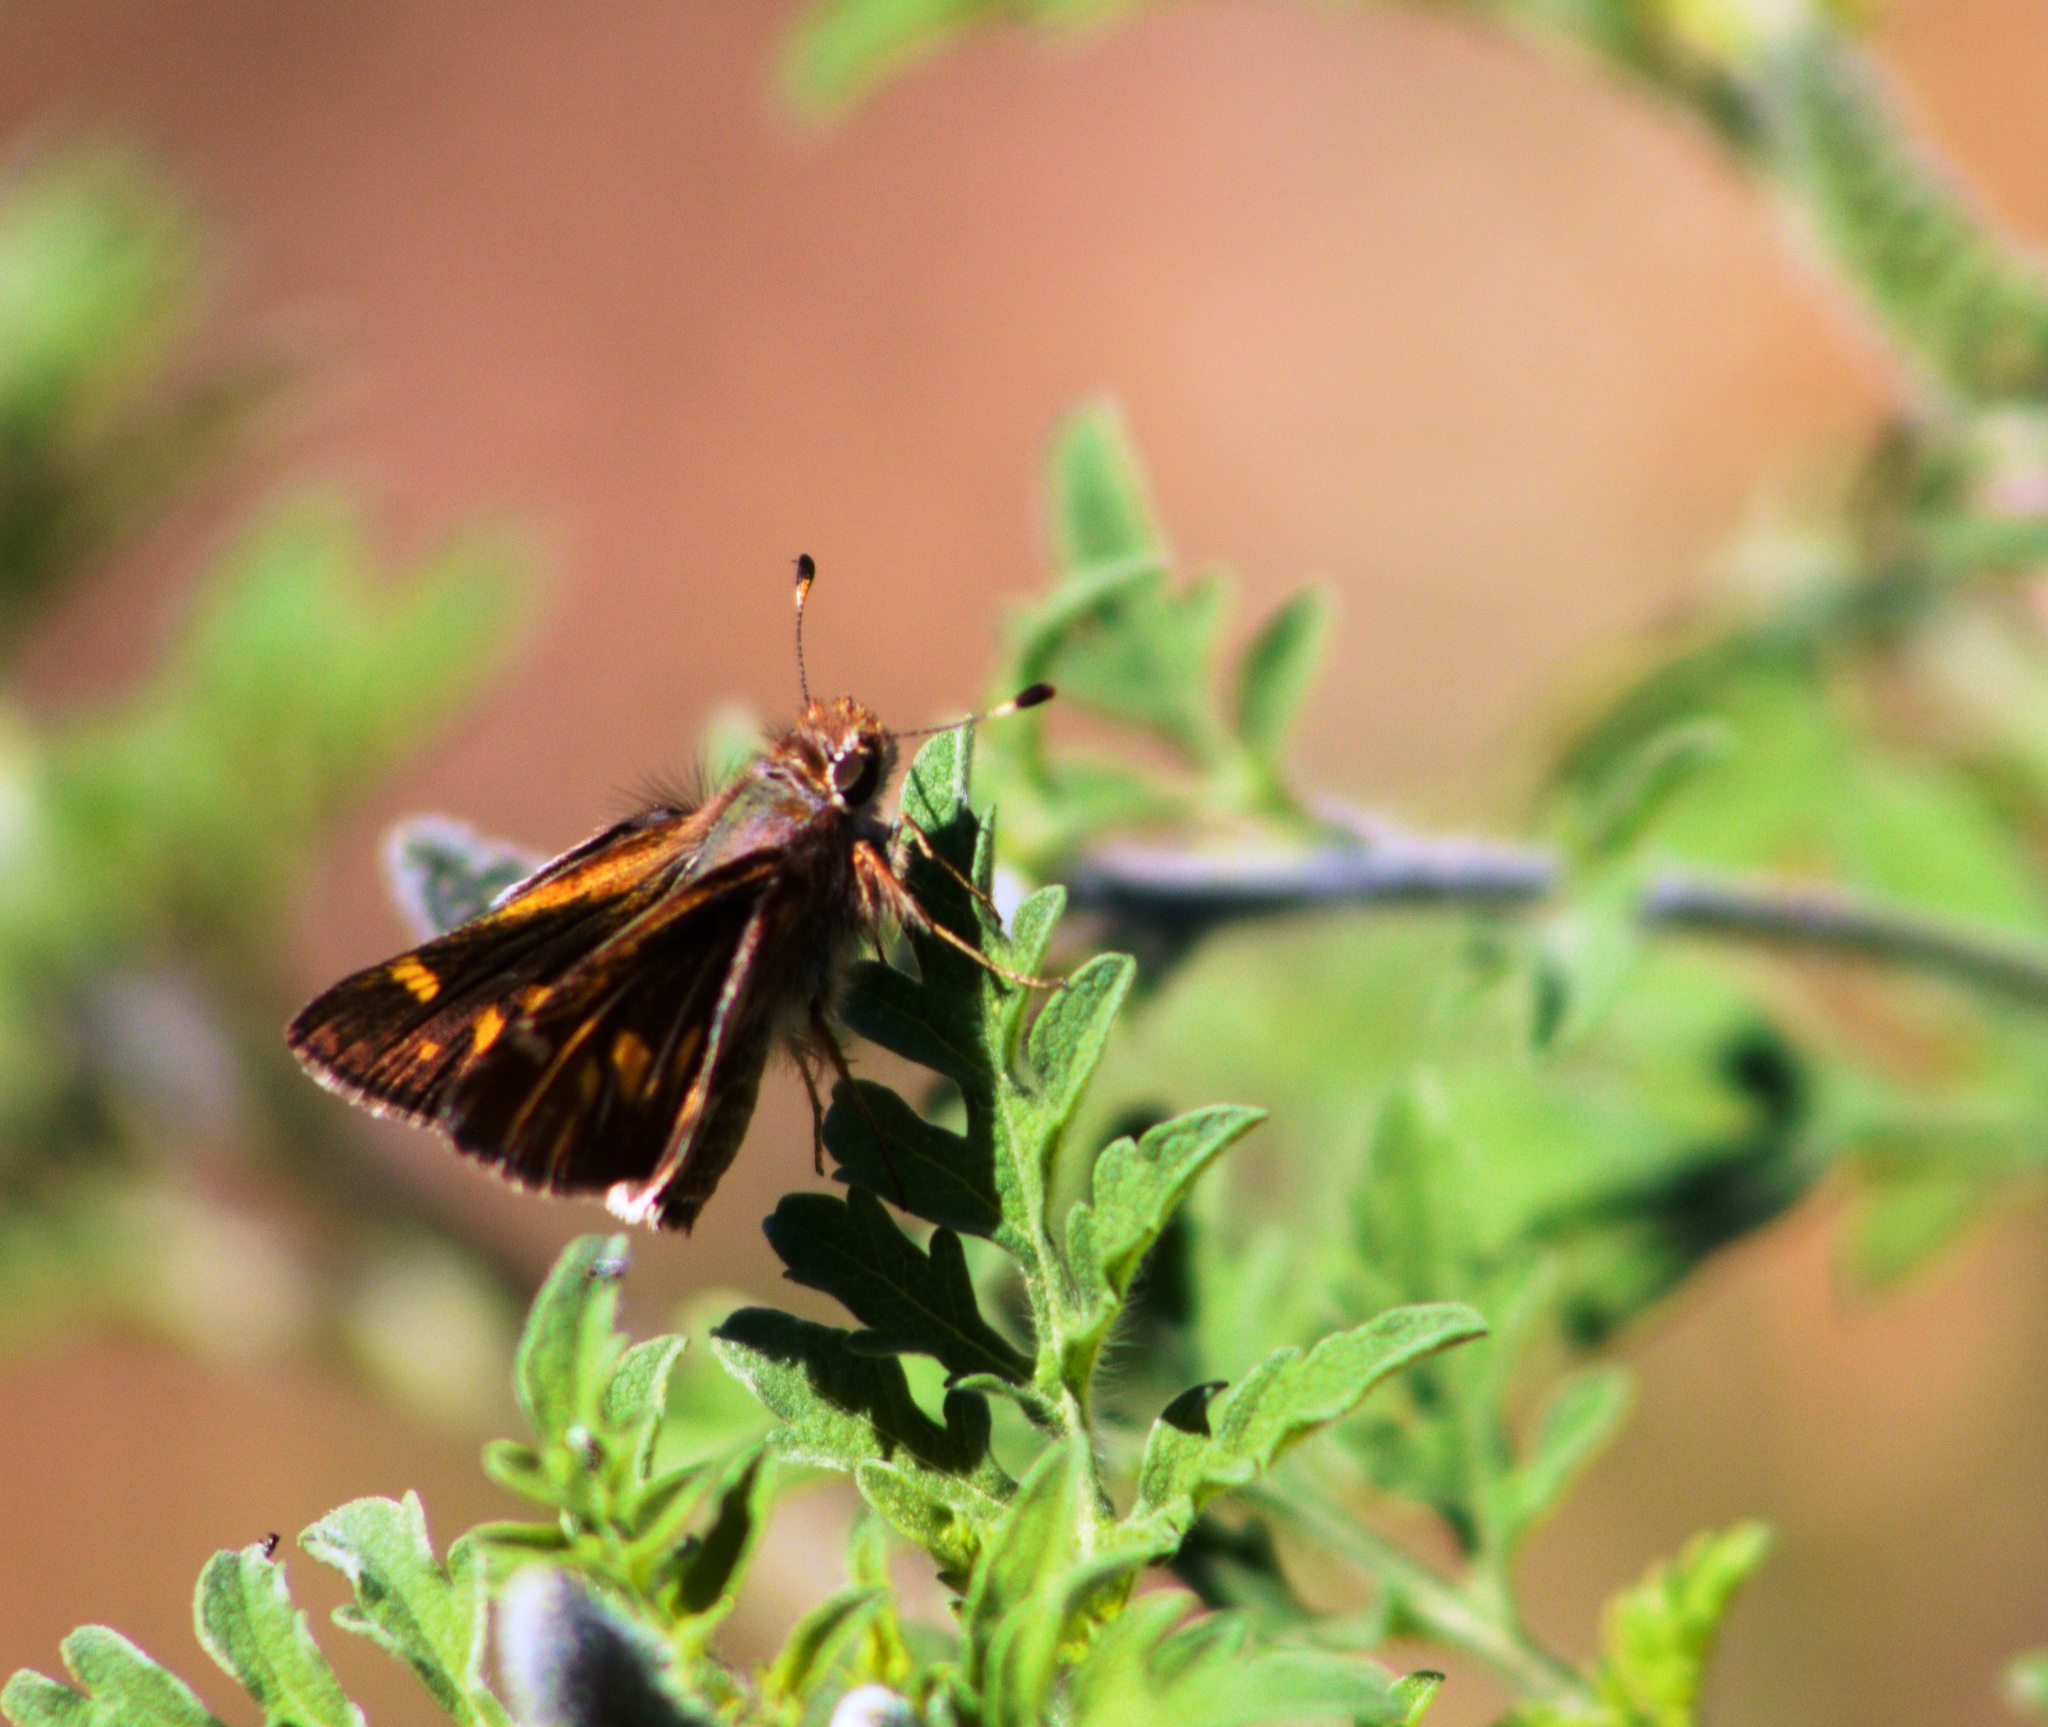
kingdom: Animalia
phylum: Arthropoda
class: Insecta
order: Lepidoptera
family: Hesperiidae
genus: Lon
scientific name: Lon melane
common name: Umber skipper
